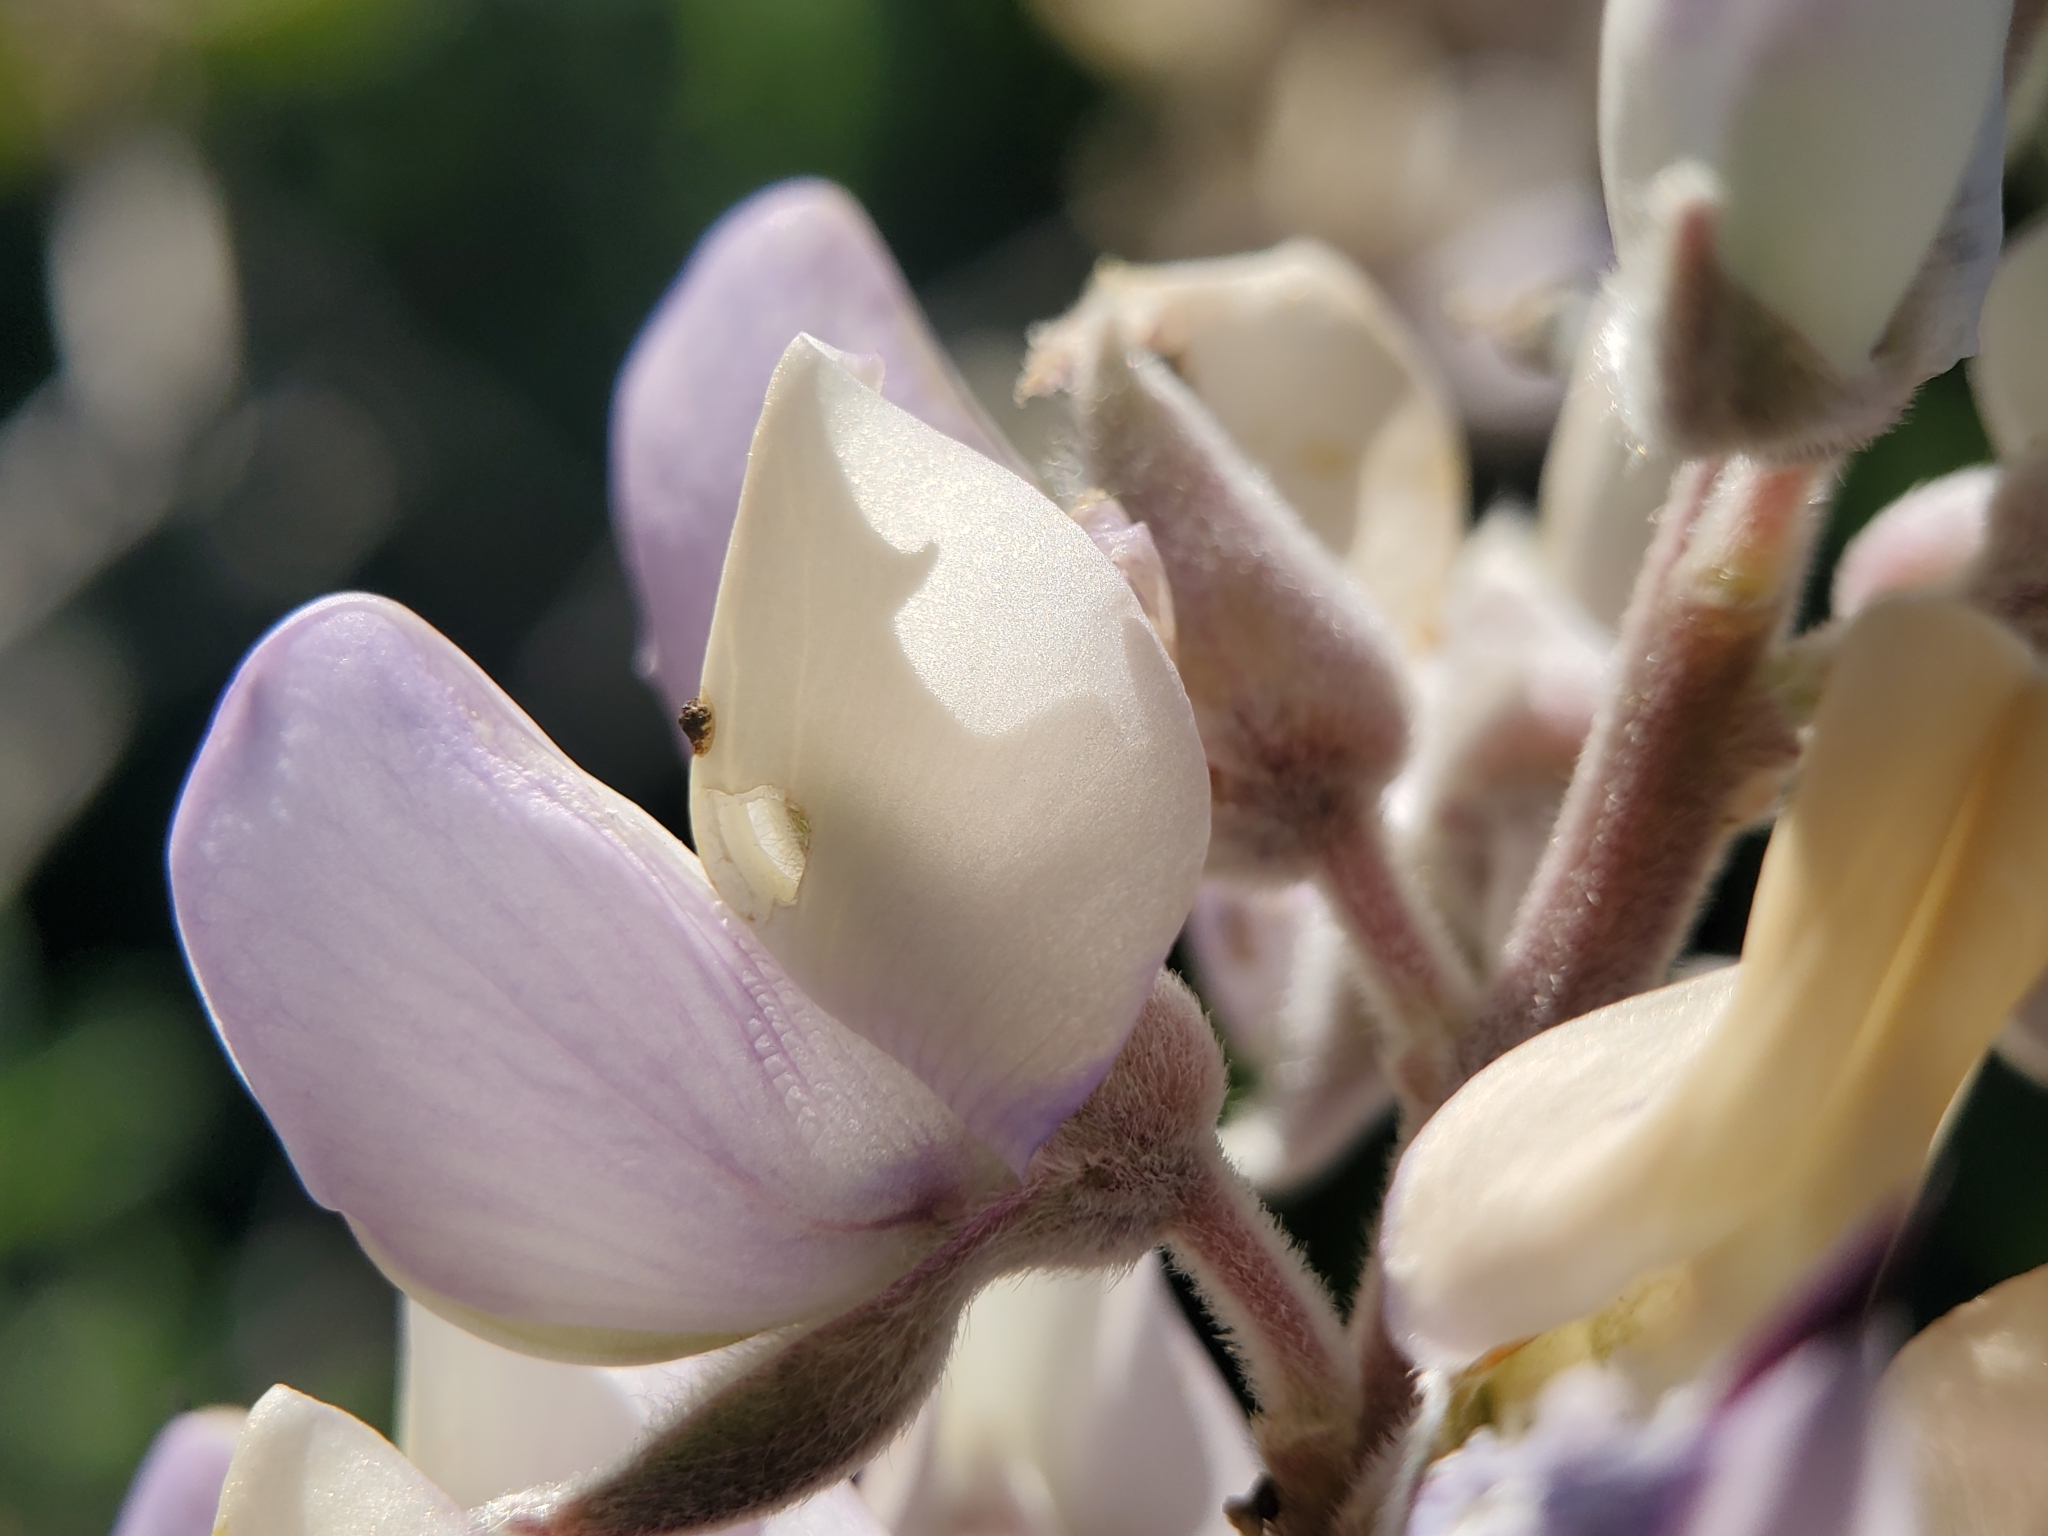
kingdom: Plantae
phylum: Tracheophyta
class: Magnoliopsida
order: Fabales
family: Fabaceae
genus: Lupinus
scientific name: Lupinus longifolius
